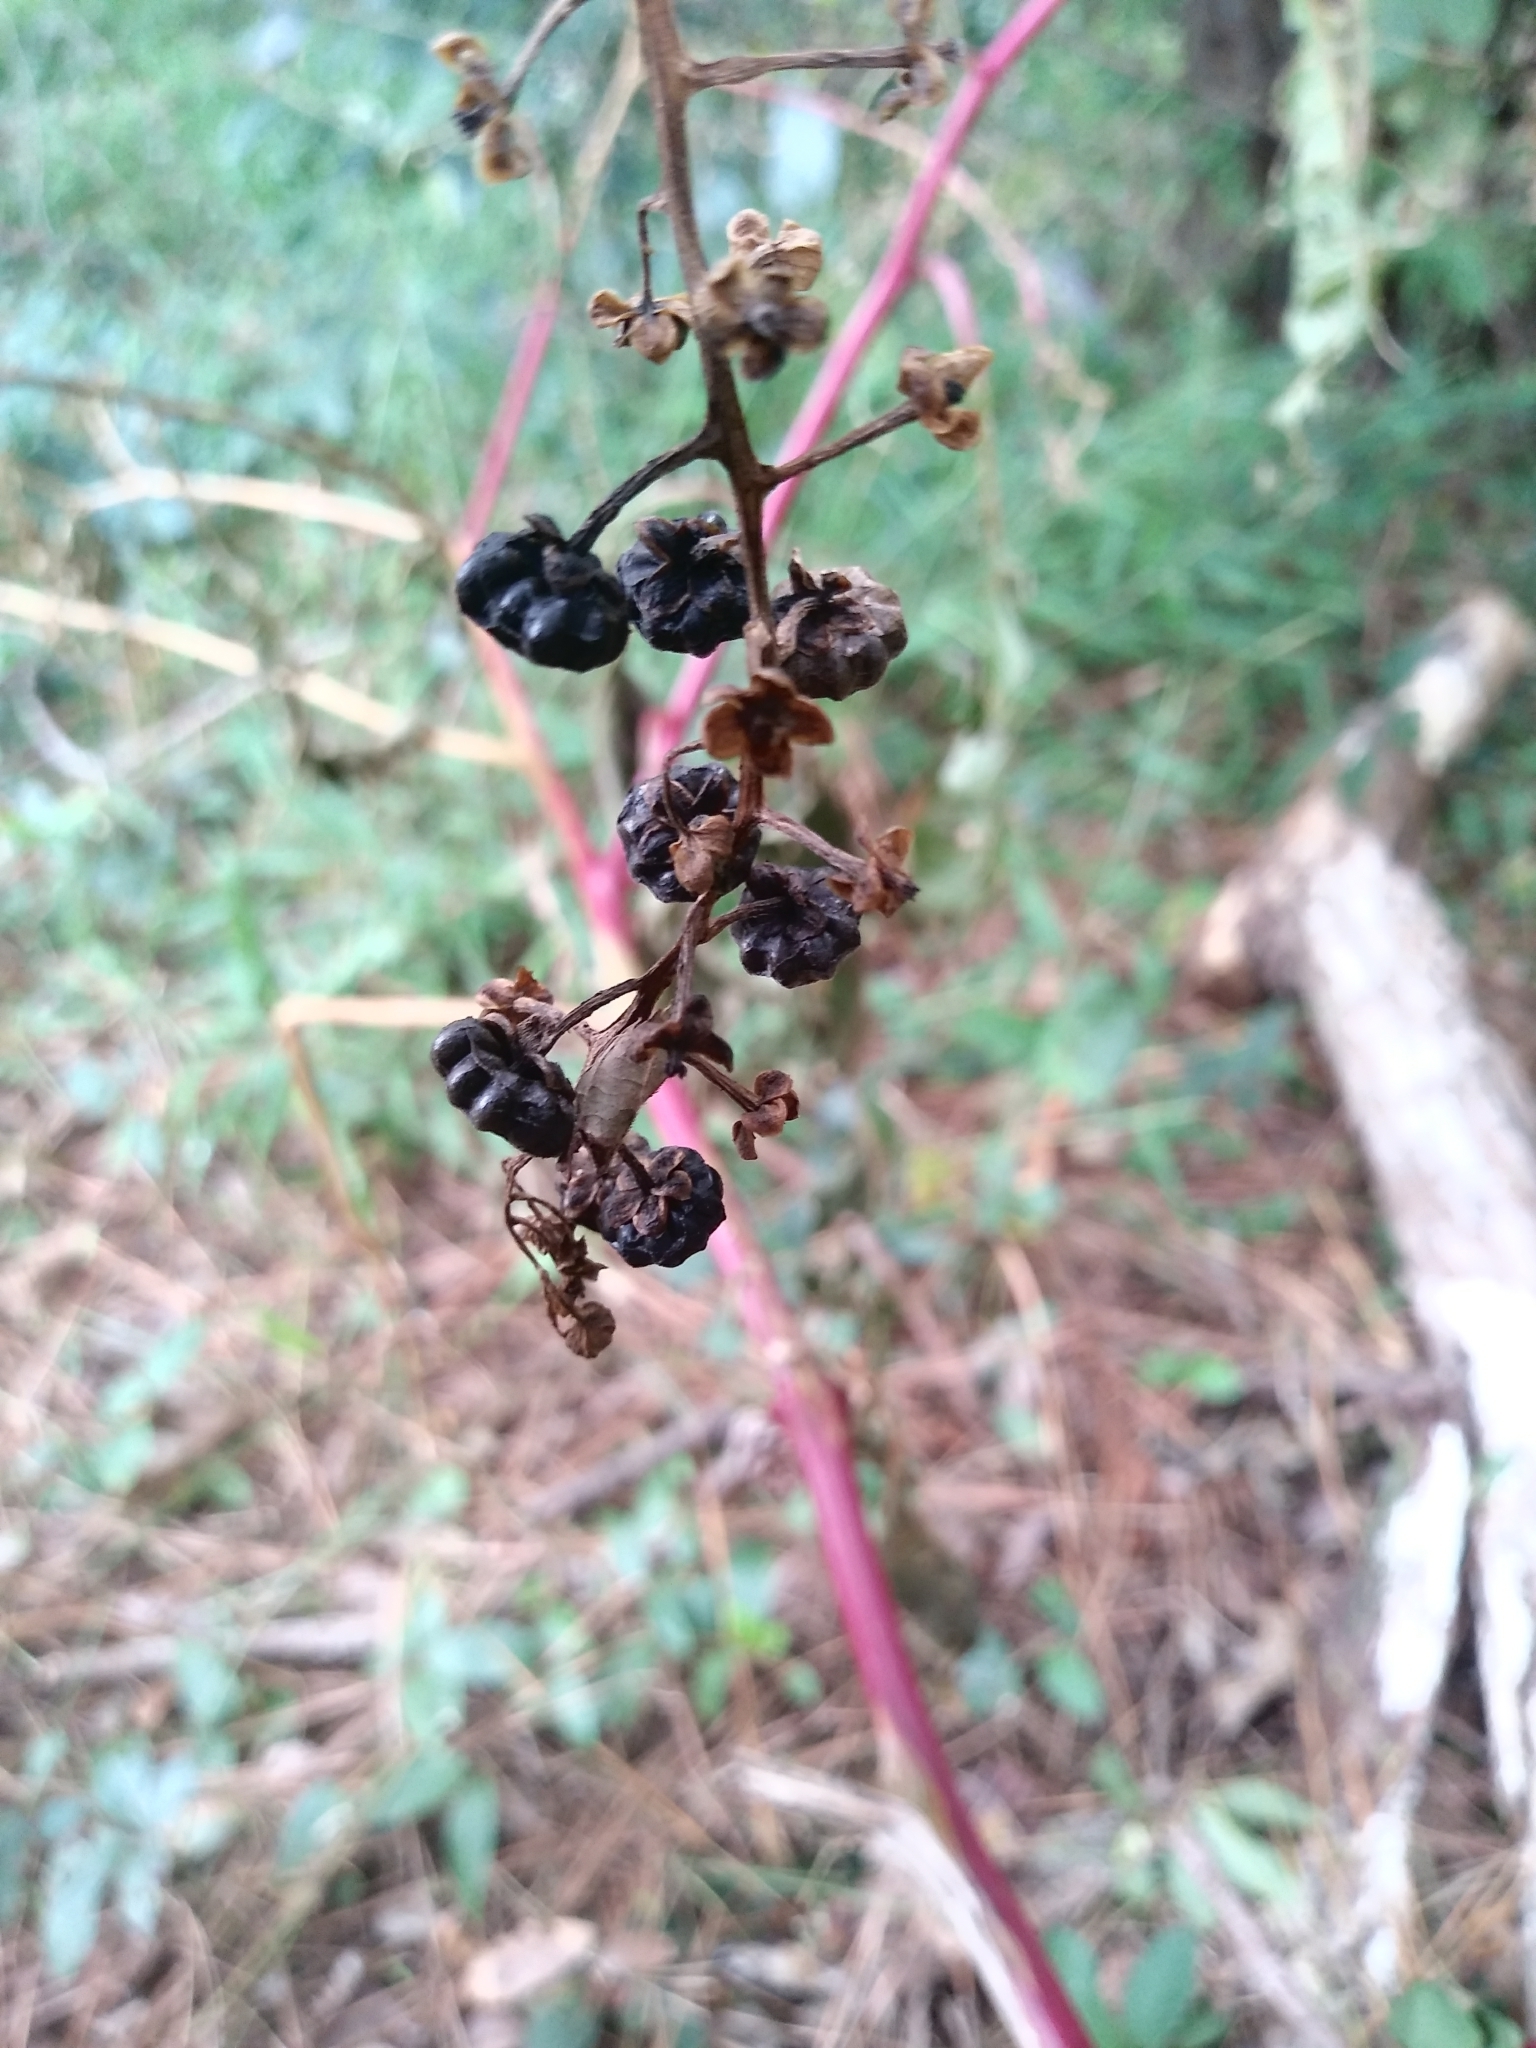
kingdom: Plantae
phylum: Tracheophyta
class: Magnoliopsida
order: Caryophyllales
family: Phytolaccaceae
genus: Phytolacca
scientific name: Phytolacca americana
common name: American pokeweed
